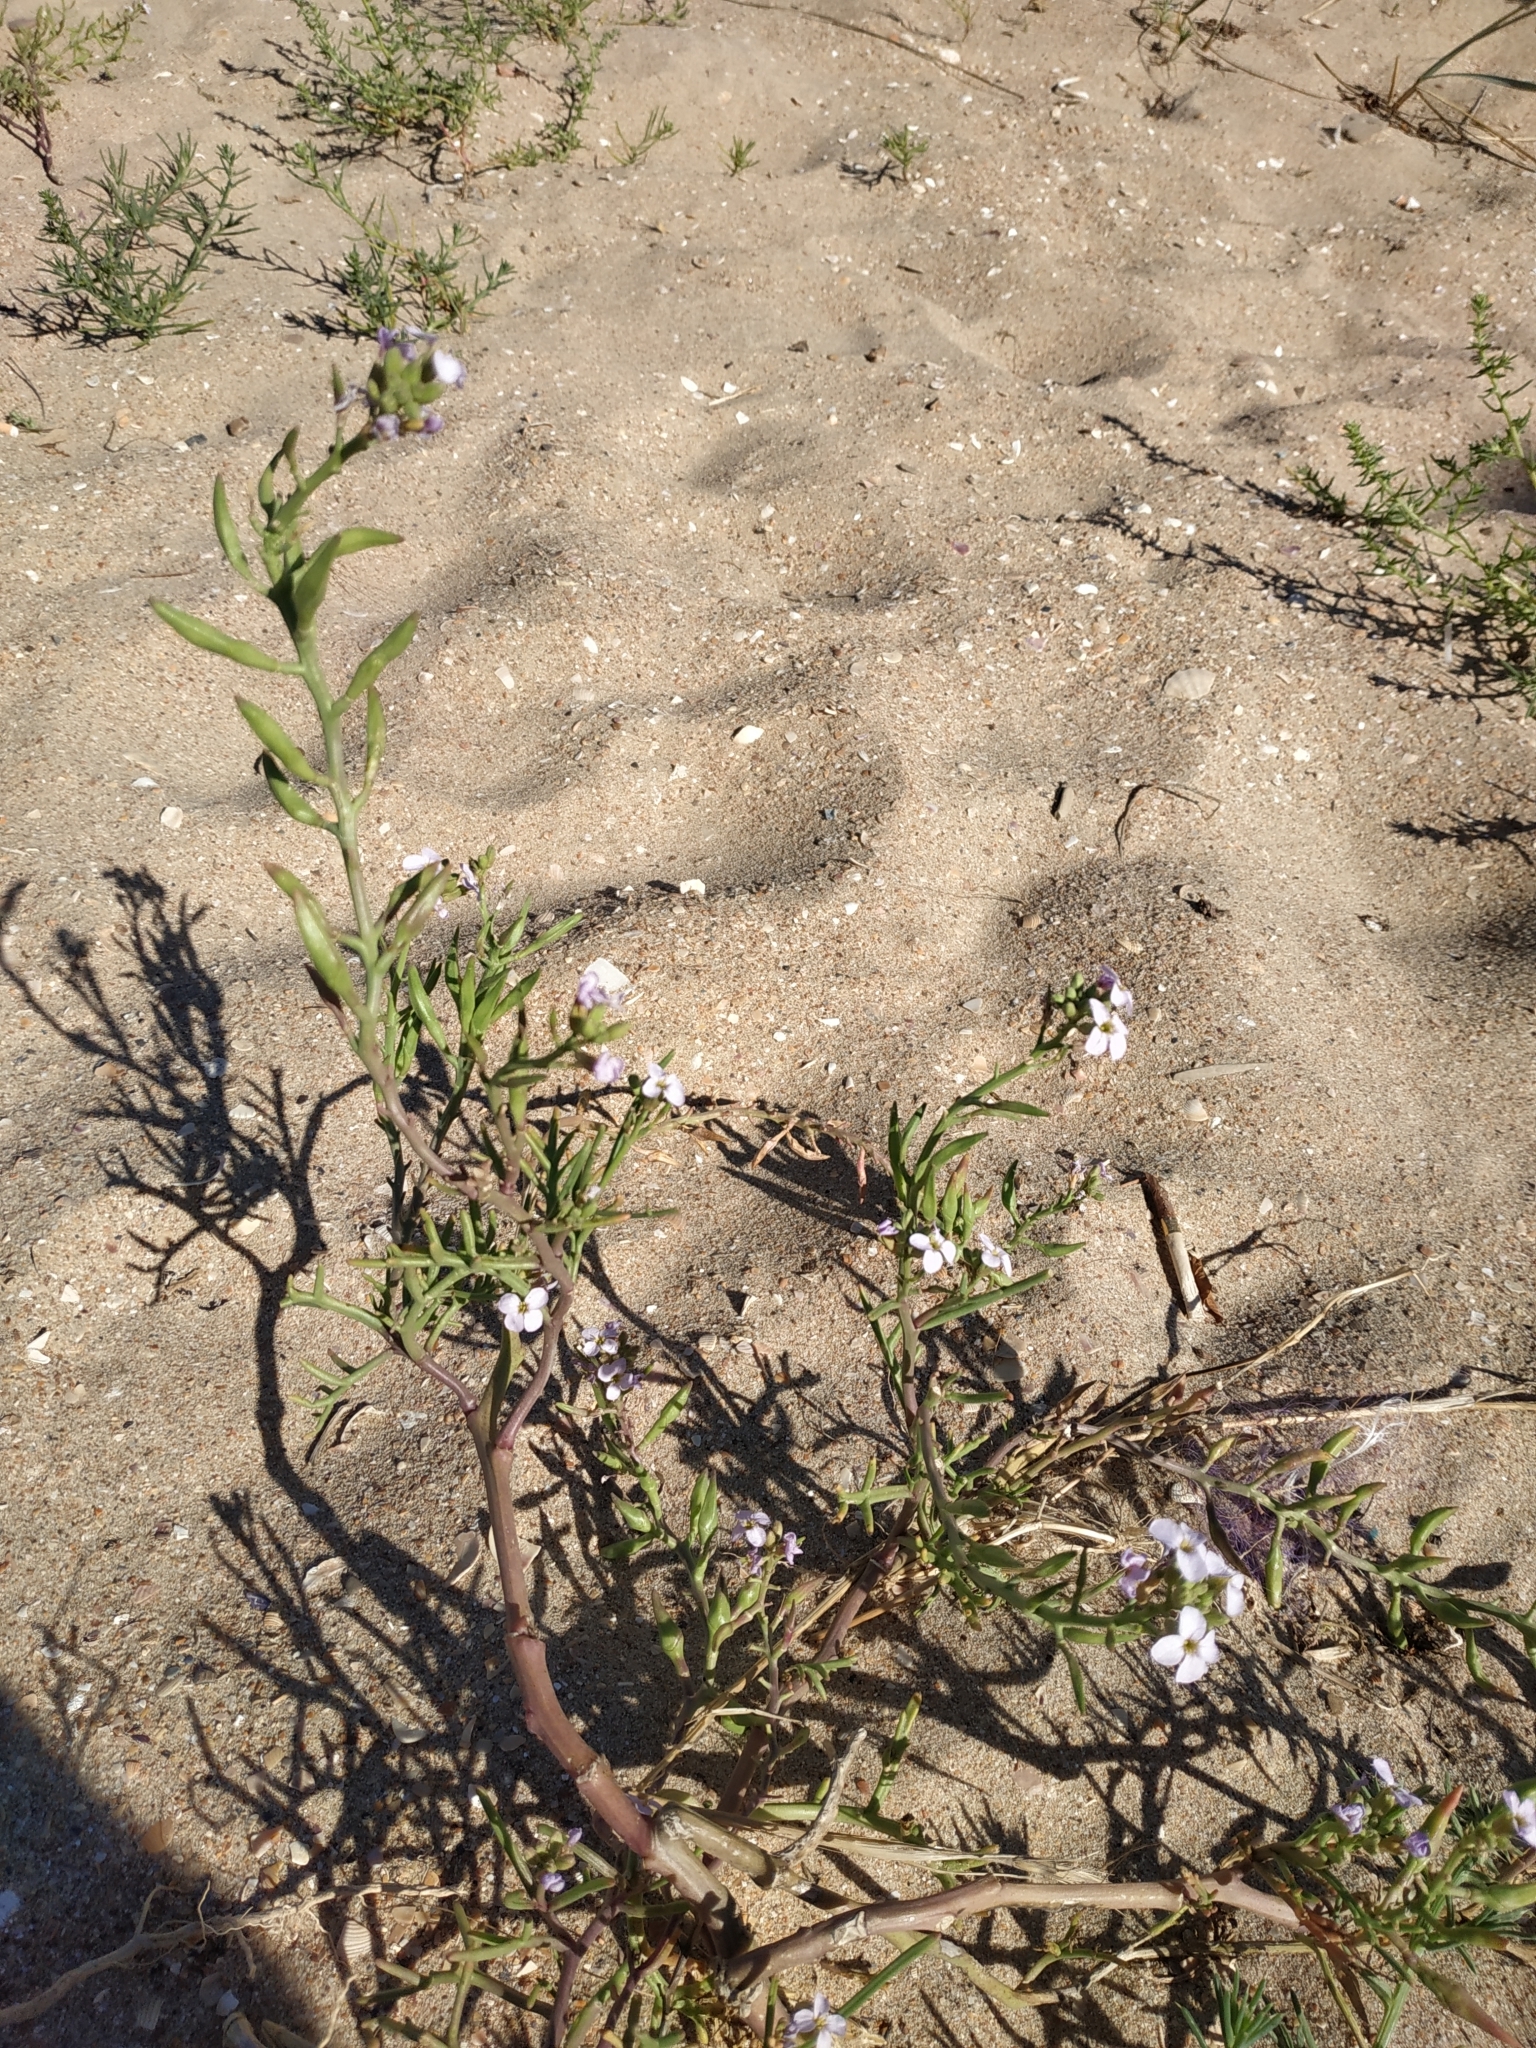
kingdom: Plantae
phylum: Tracheophyta
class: Magnoliopsida
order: Brassicales
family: Brassicaceae
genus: Cakile
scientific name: Cakile maritima
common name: Sea rocket
